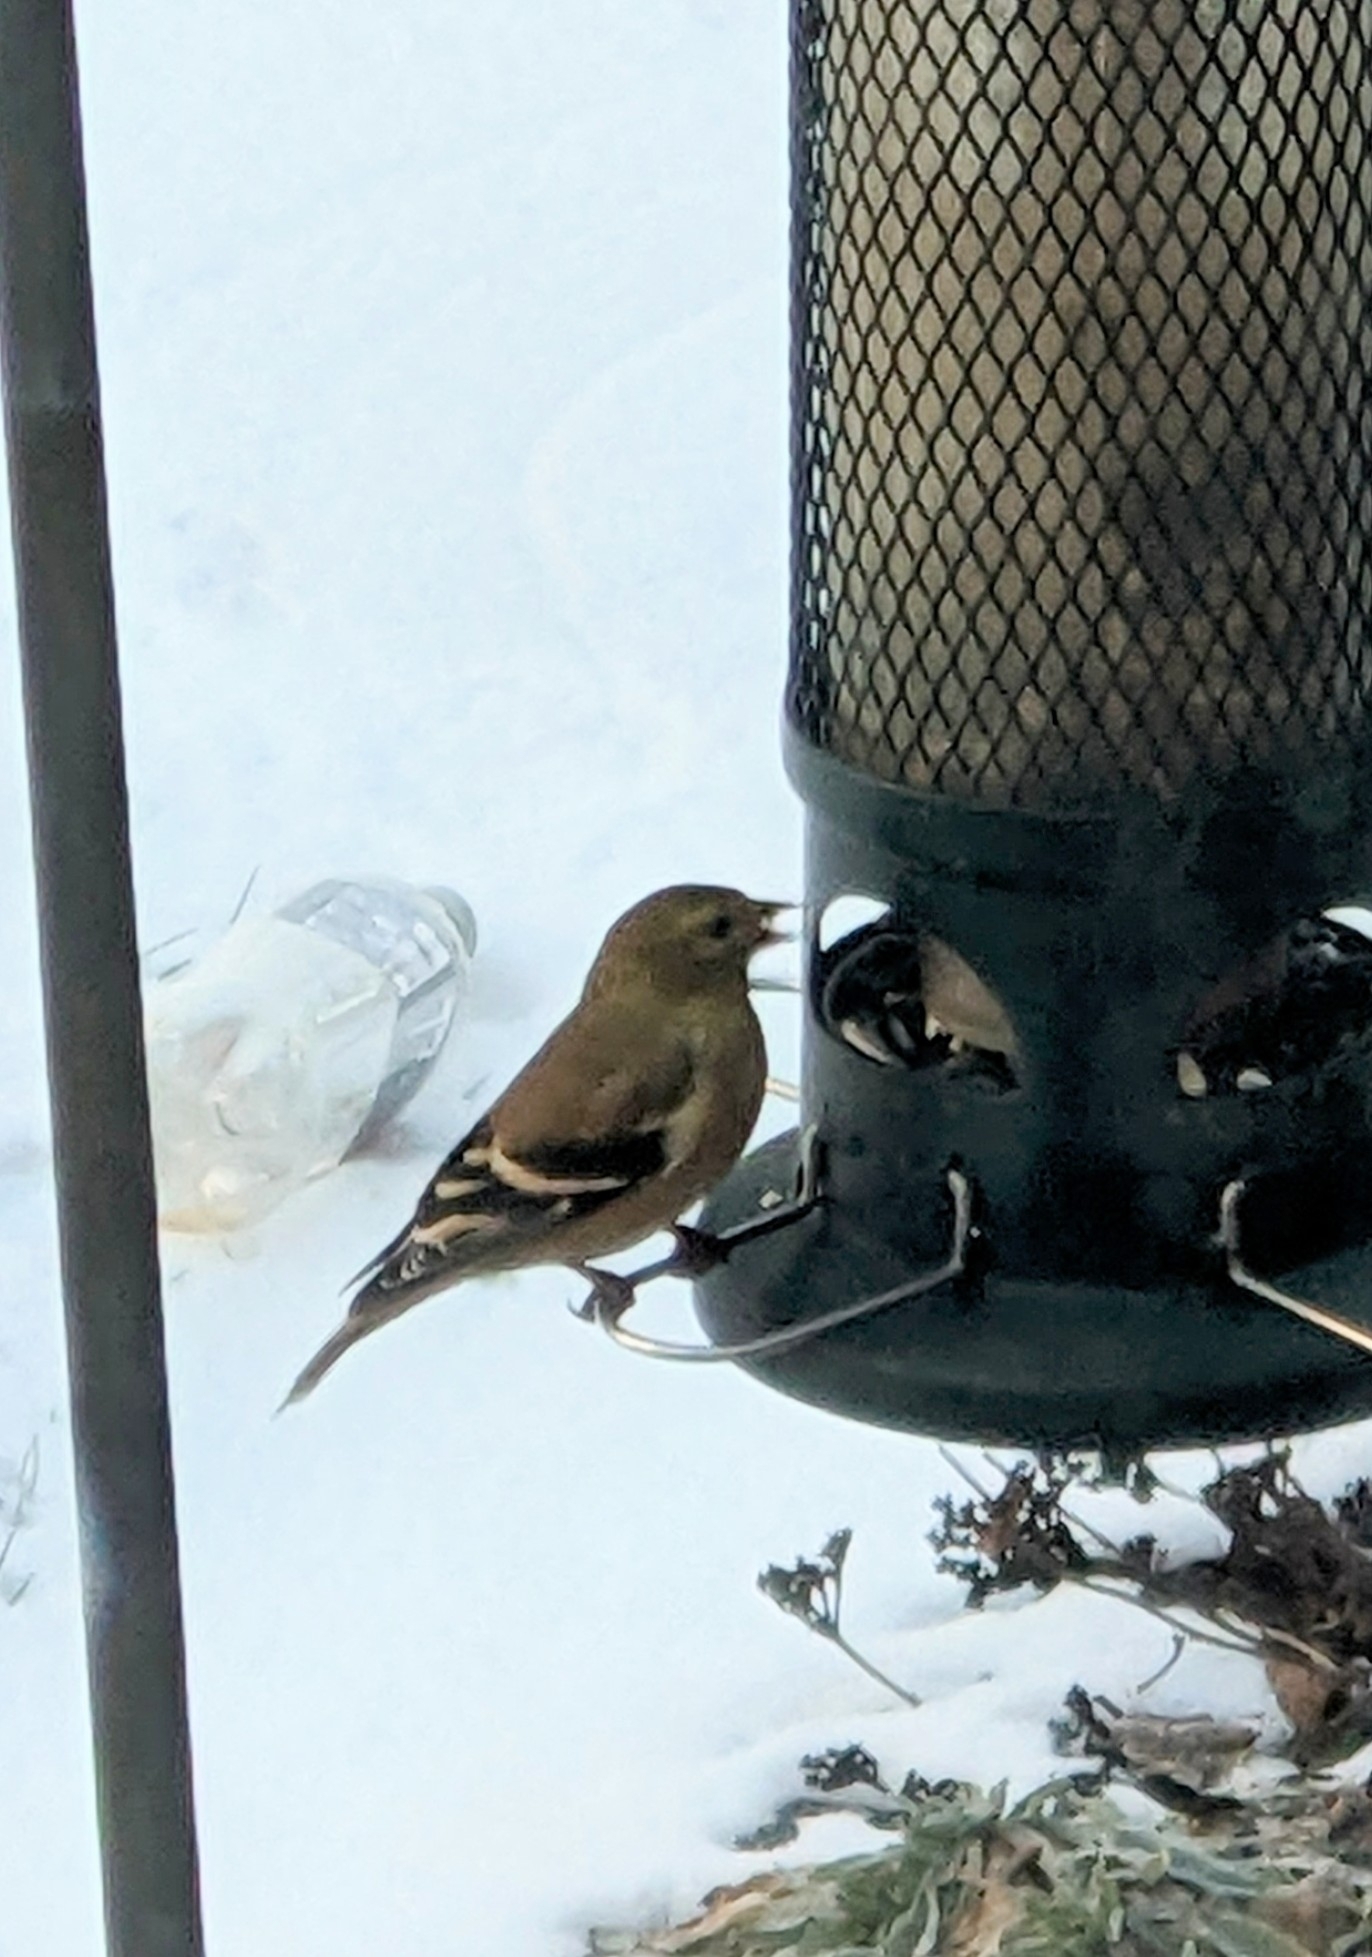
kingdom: Animalia
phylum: Chordata
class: Aves
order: Passeriformes
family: Fringillidae
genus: Spinus
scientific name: Spinus tristis
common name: American goldfinch
